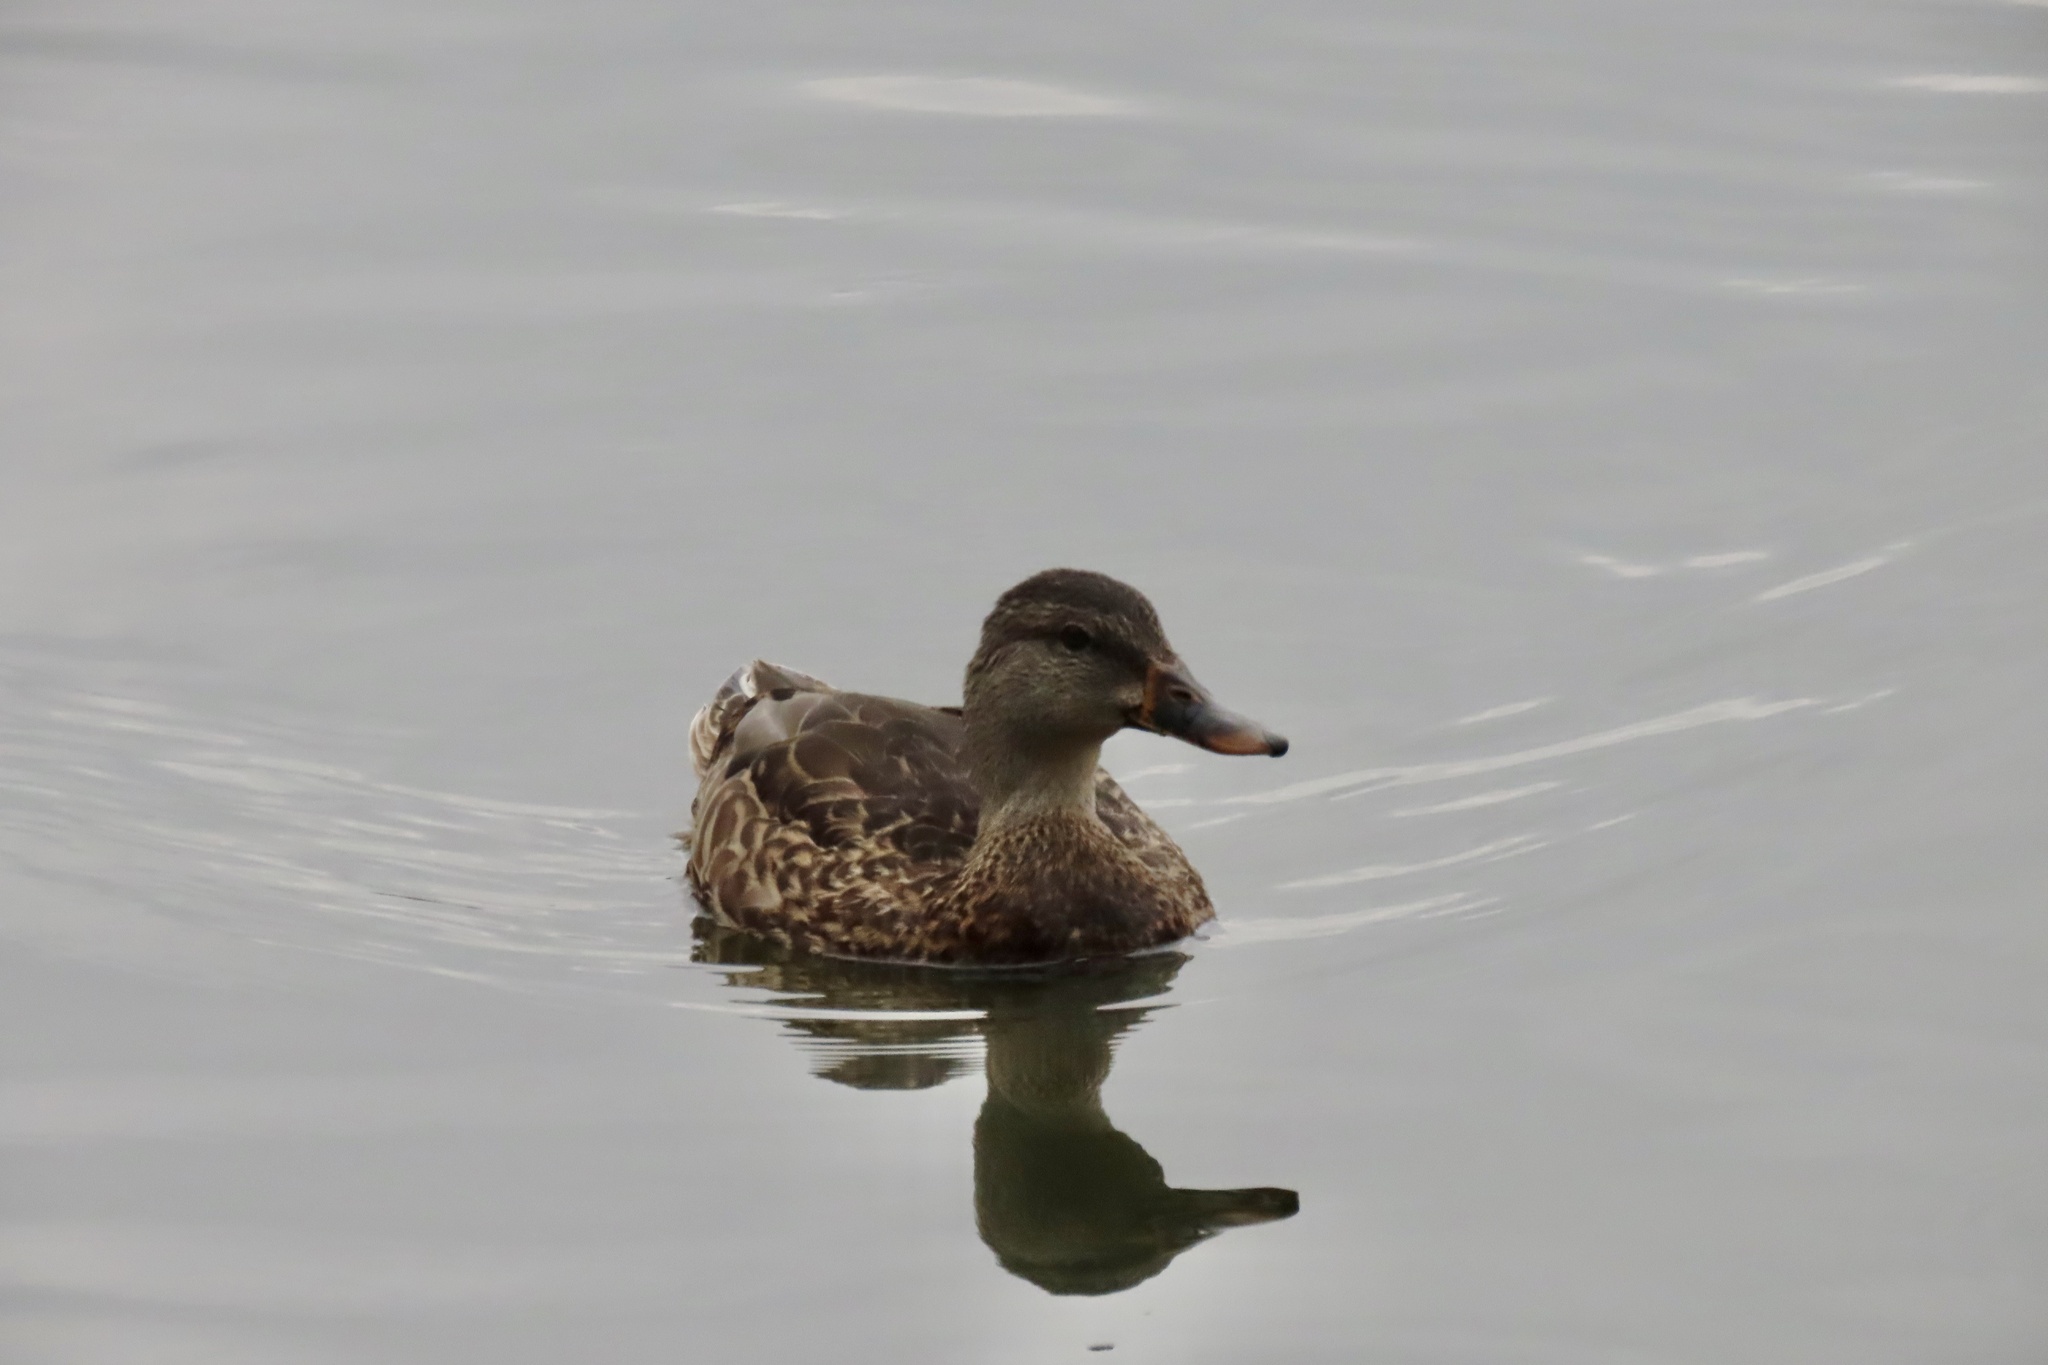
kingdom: Animalia
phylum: Chordata
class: Aves
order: Anseriformes
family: Anatidae
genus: Anas
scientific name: Anas platyrhynchos
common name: Mallard
